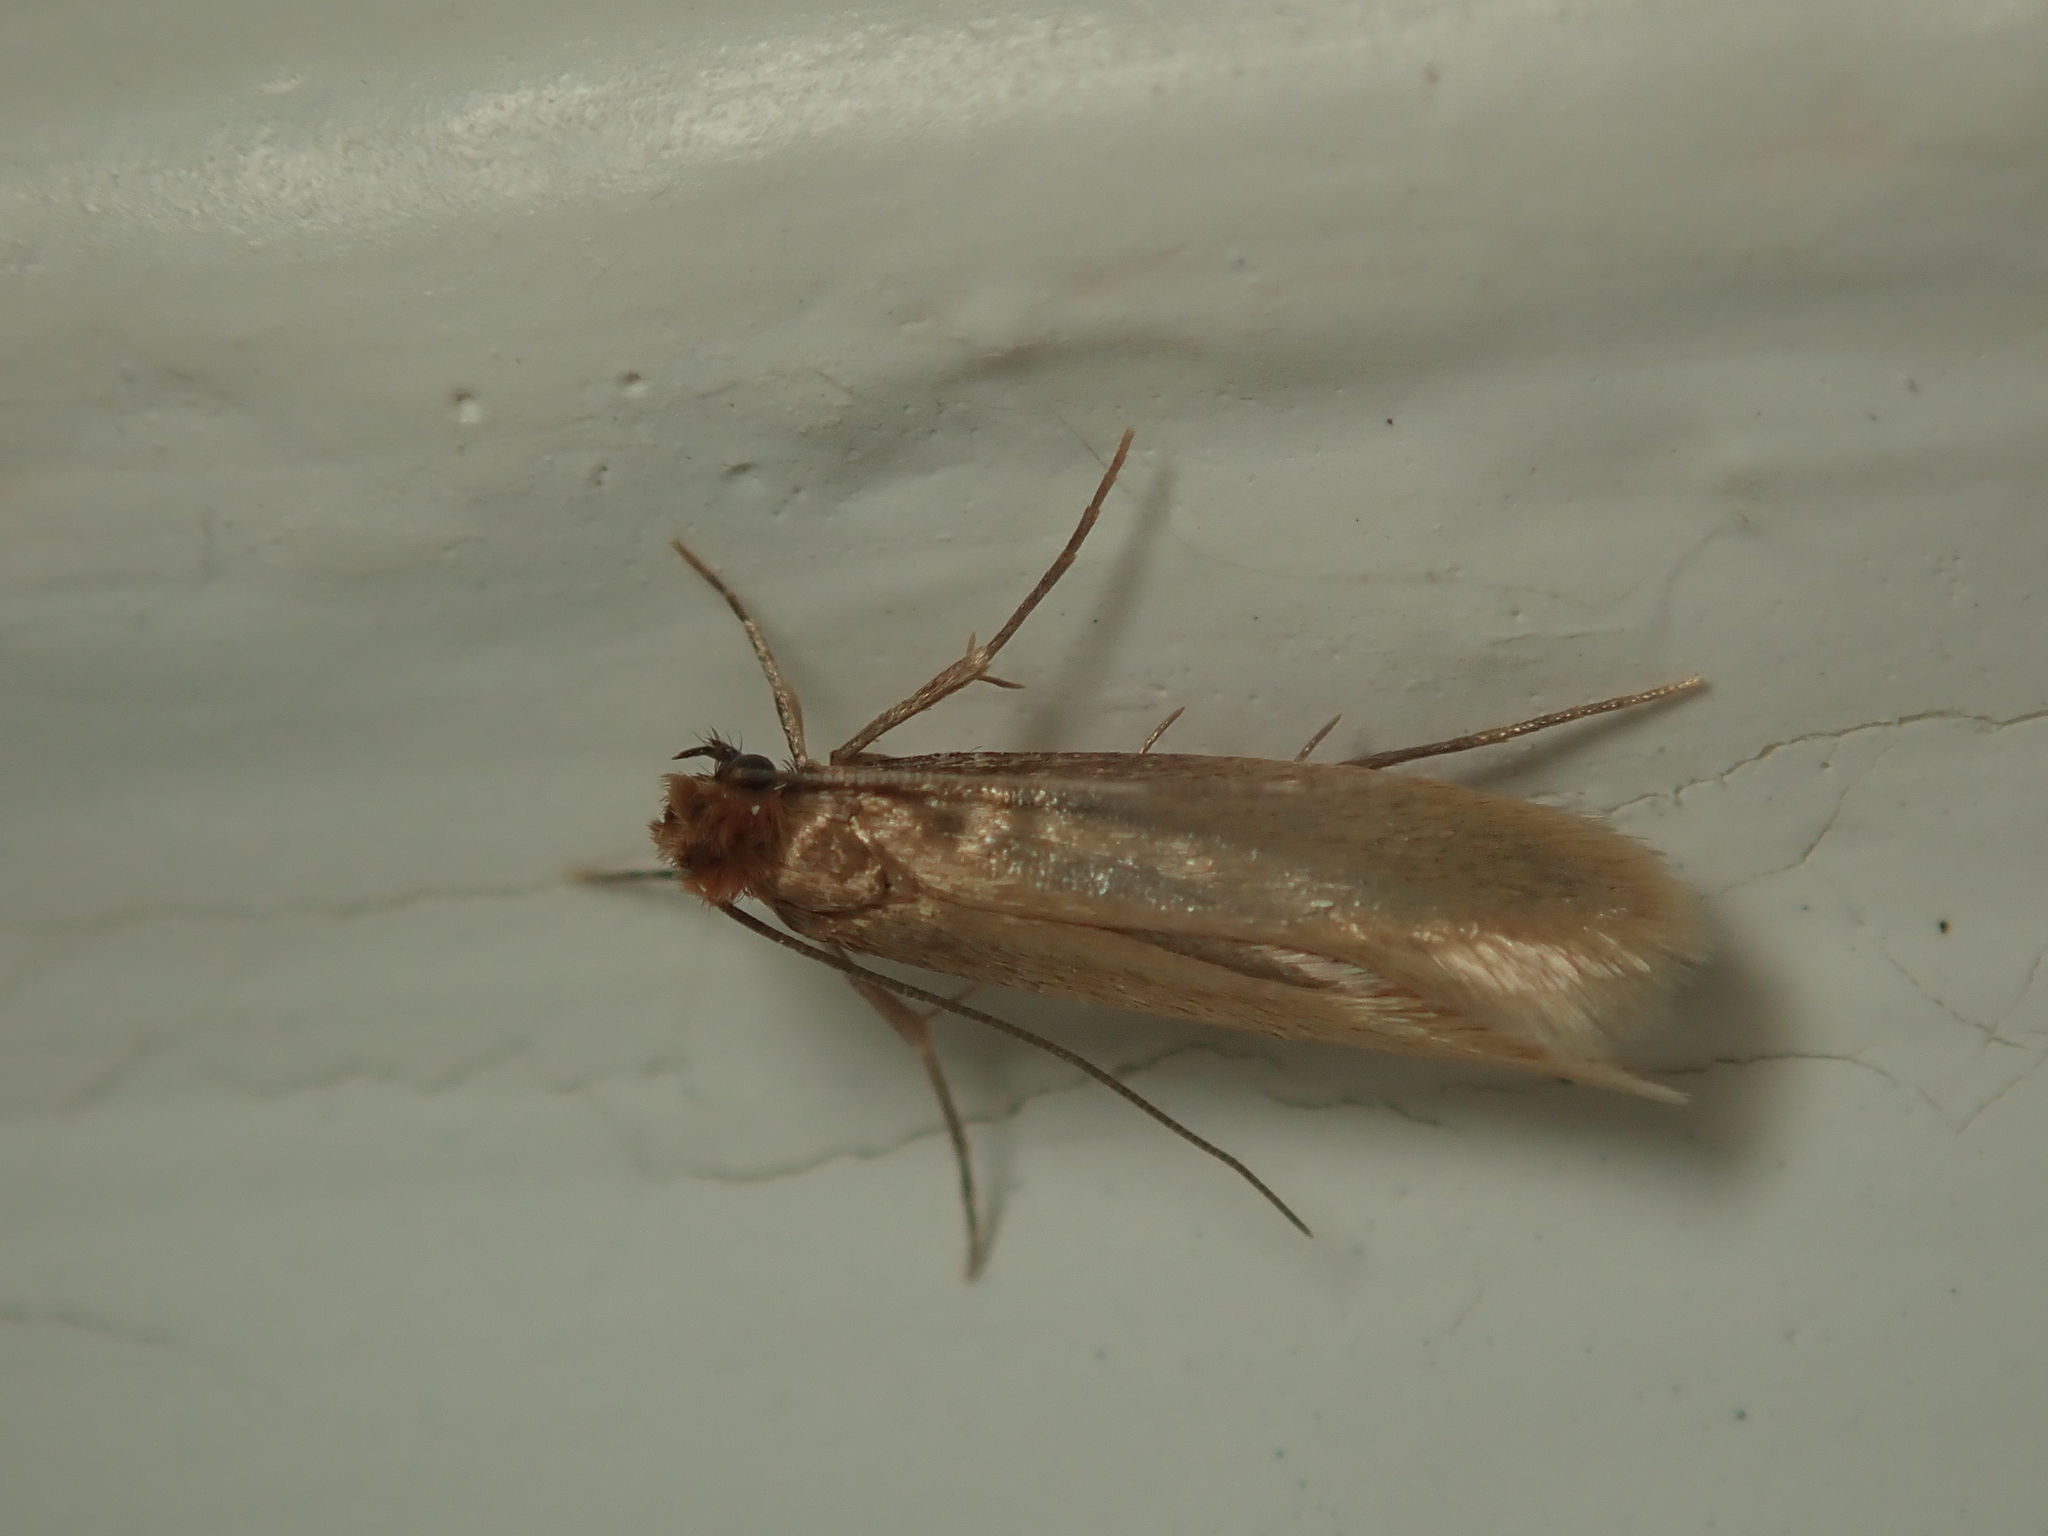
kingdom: Animalia
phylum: Arthropoda
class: Insecta
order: Lepidoptera
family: Tineidae
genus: Tineola
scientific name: Tineola bisselliella
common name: Webbing clothes moth
